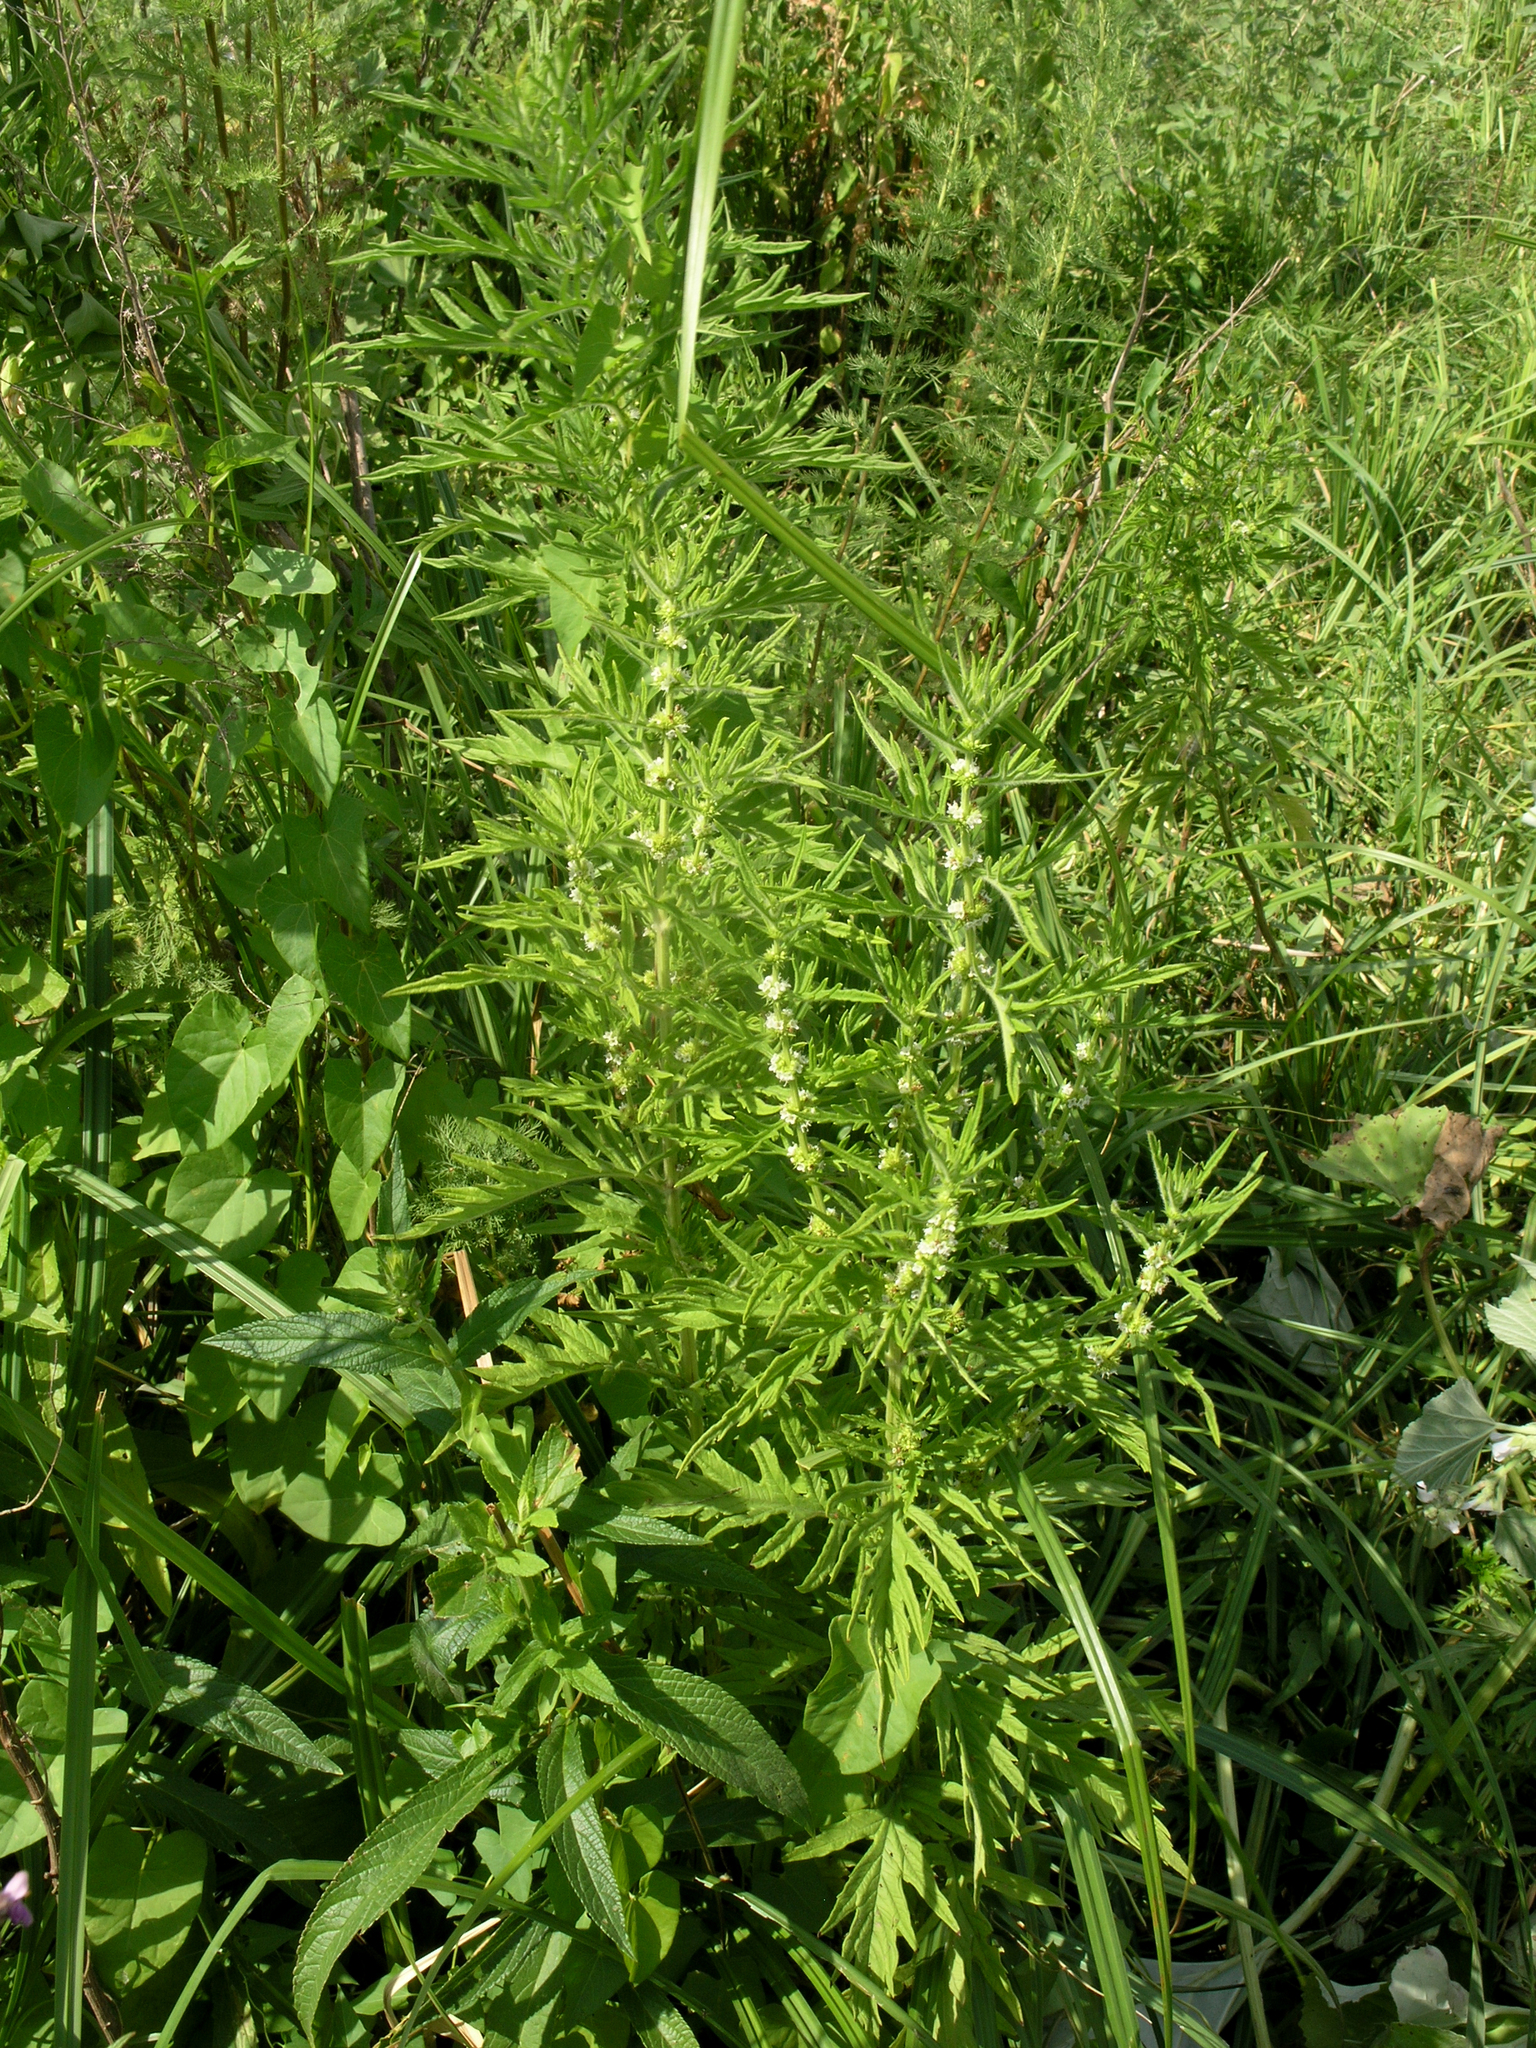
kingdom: Plantae
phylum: Tracheophyta
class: Magnoliopsida
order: Lamiales
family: Lamiaceae
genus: Lycopus
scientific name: Lycopus exaltatus
